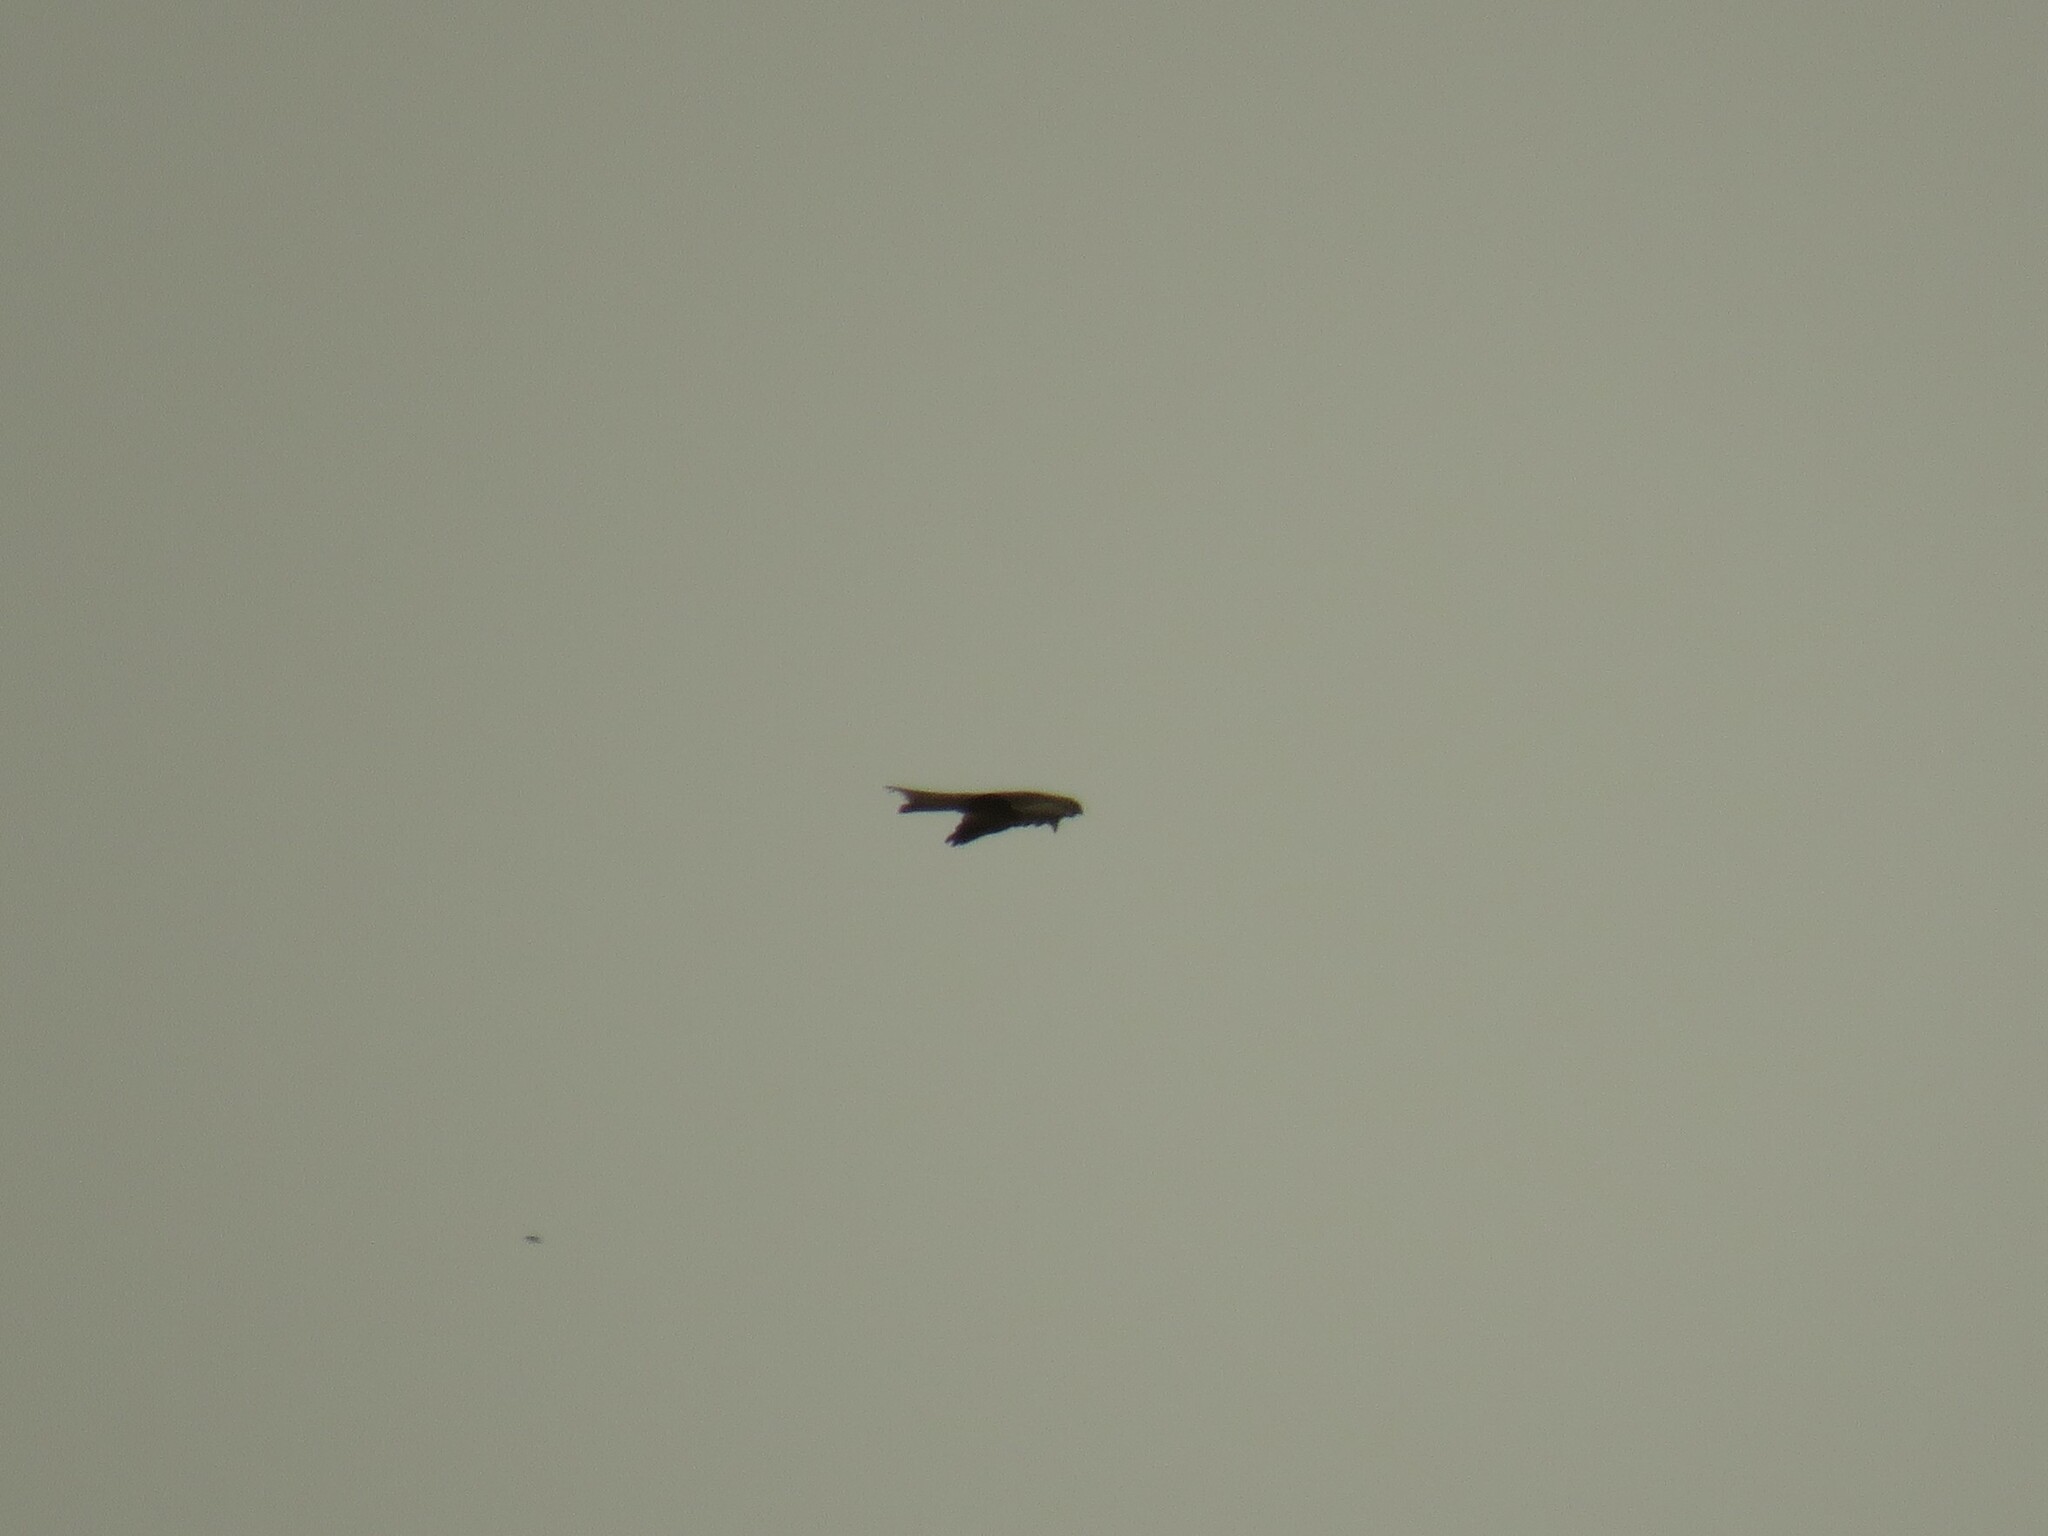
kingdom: Animalia
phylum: Chordata
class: Aves
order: Accipitriformes
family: Accipitridae
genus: Milvus
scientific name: Milvus migrans
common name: Black kite
